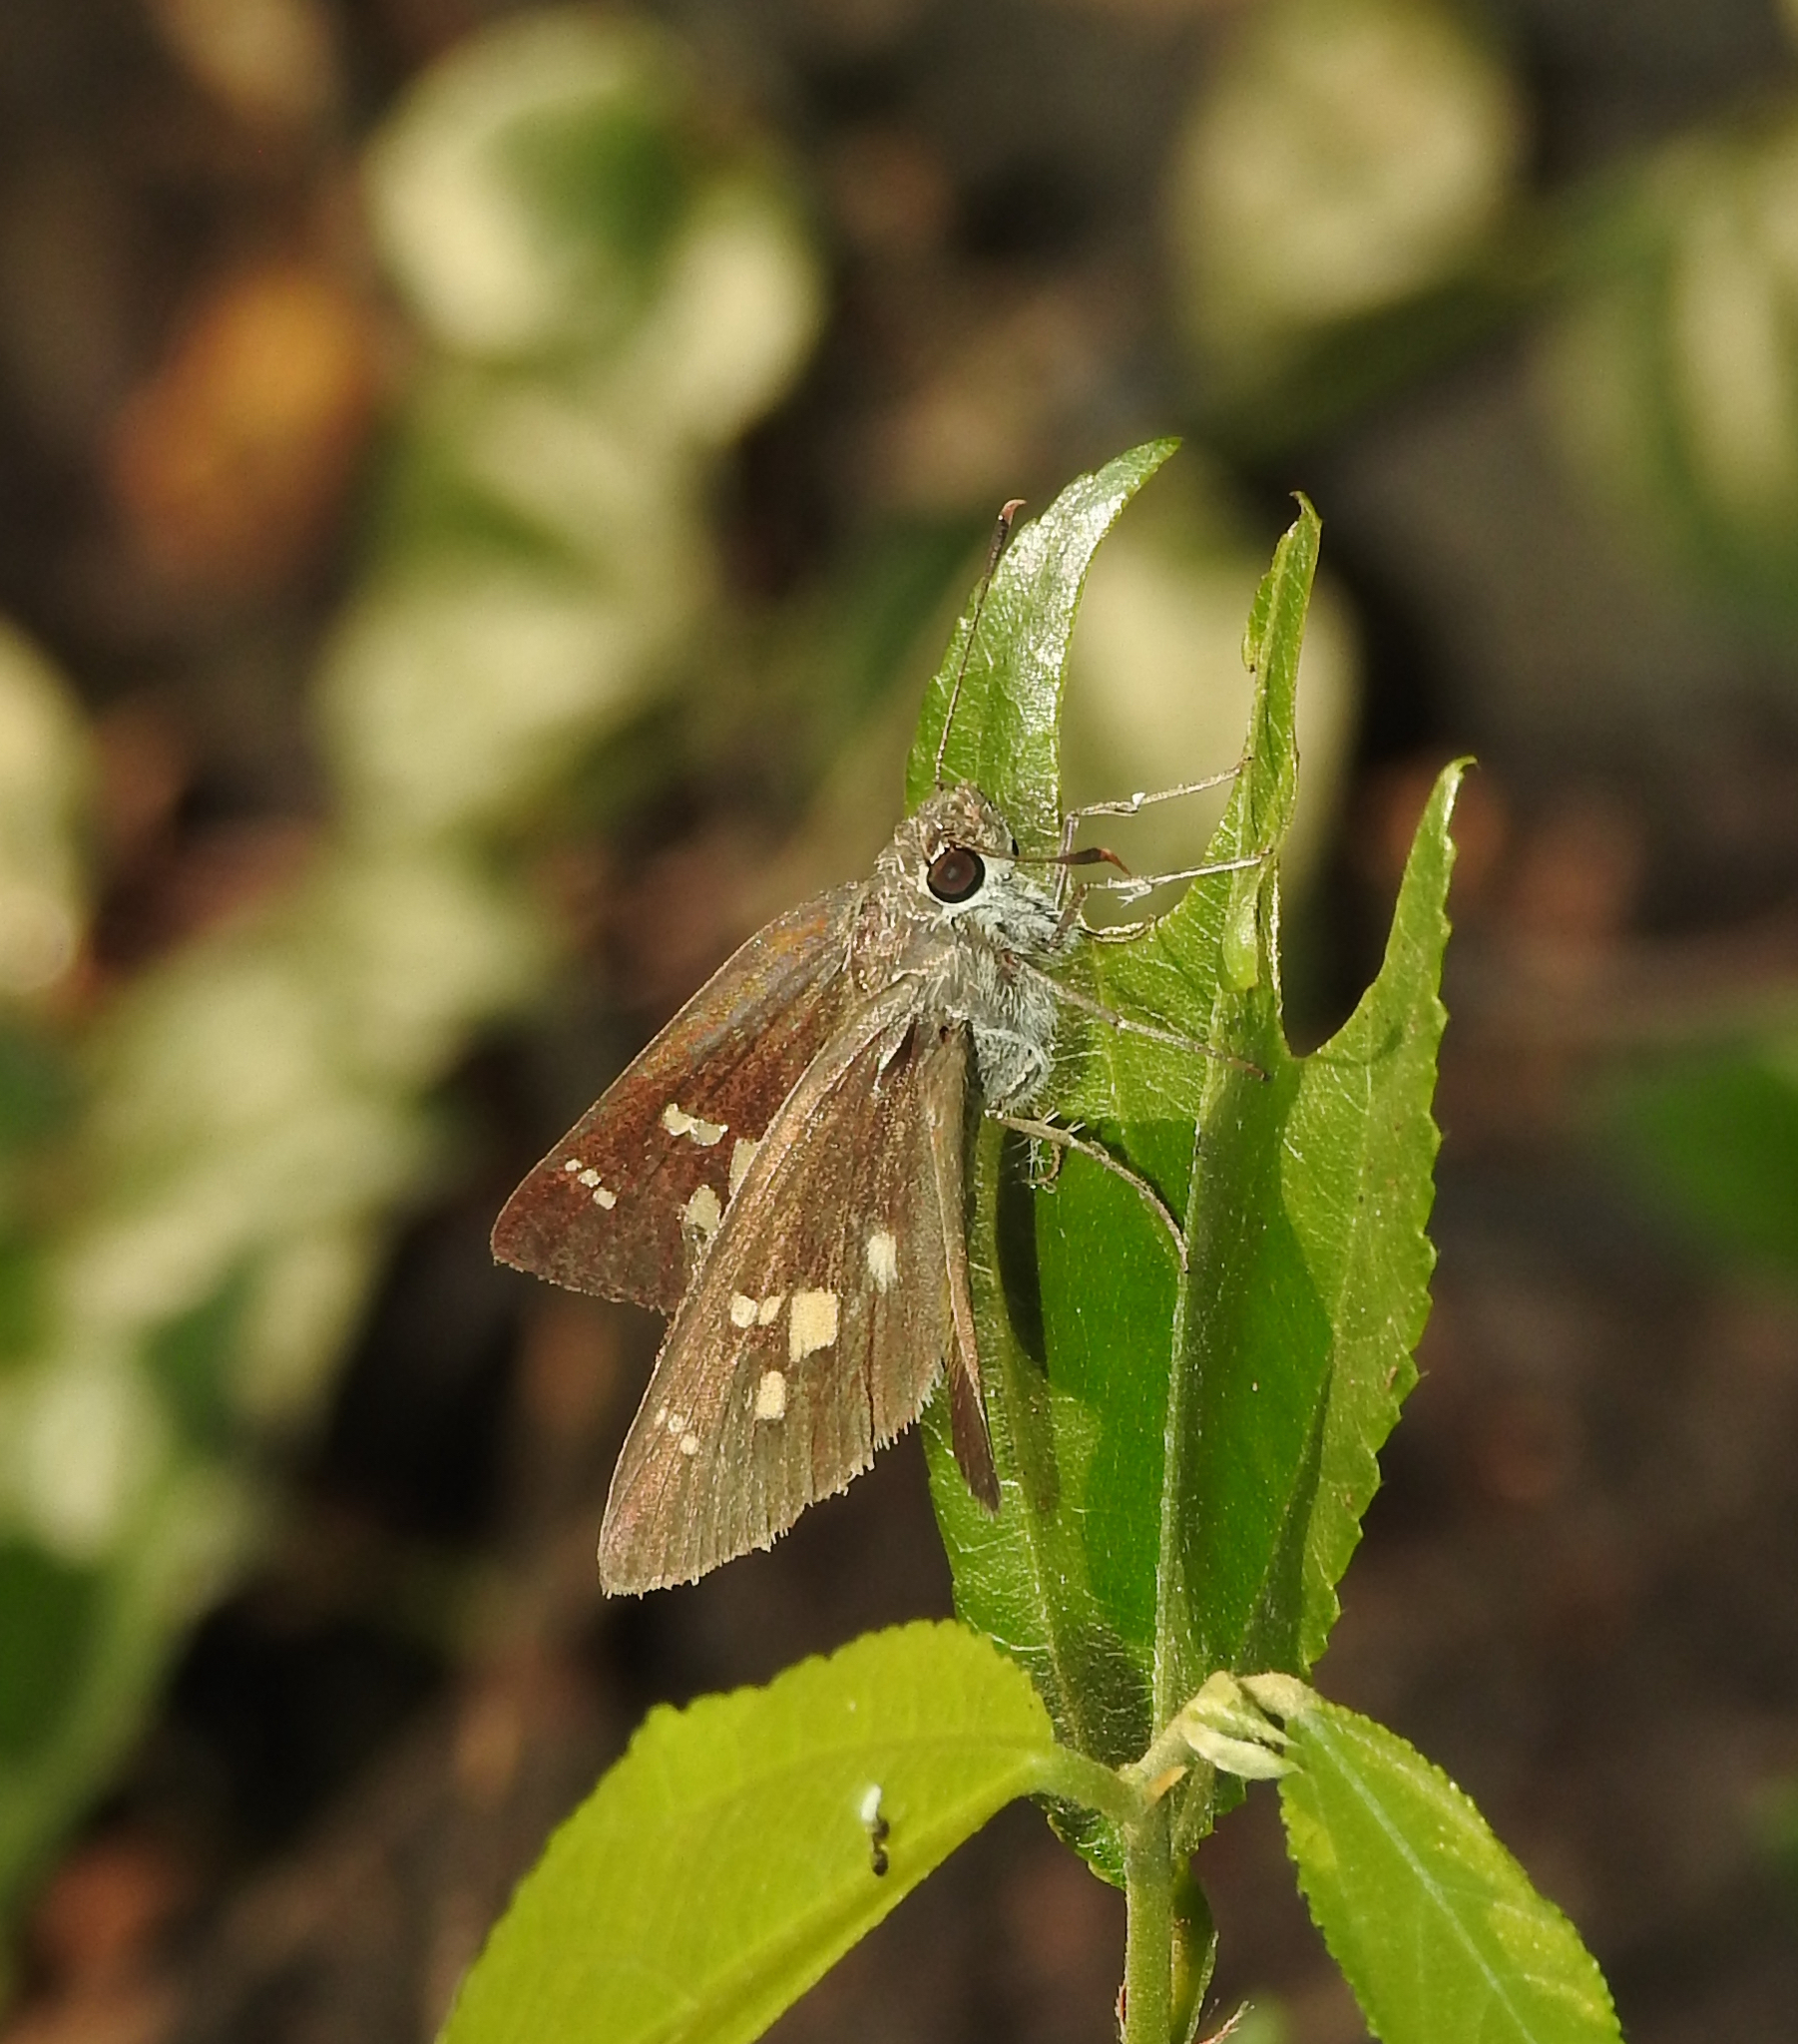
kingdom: Animalia
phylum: Arthropoda
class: Insecta
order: Lepidoptera
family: Hesperiidae
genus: Suastus
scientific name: Suastus gremius
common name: Indian palm bob
